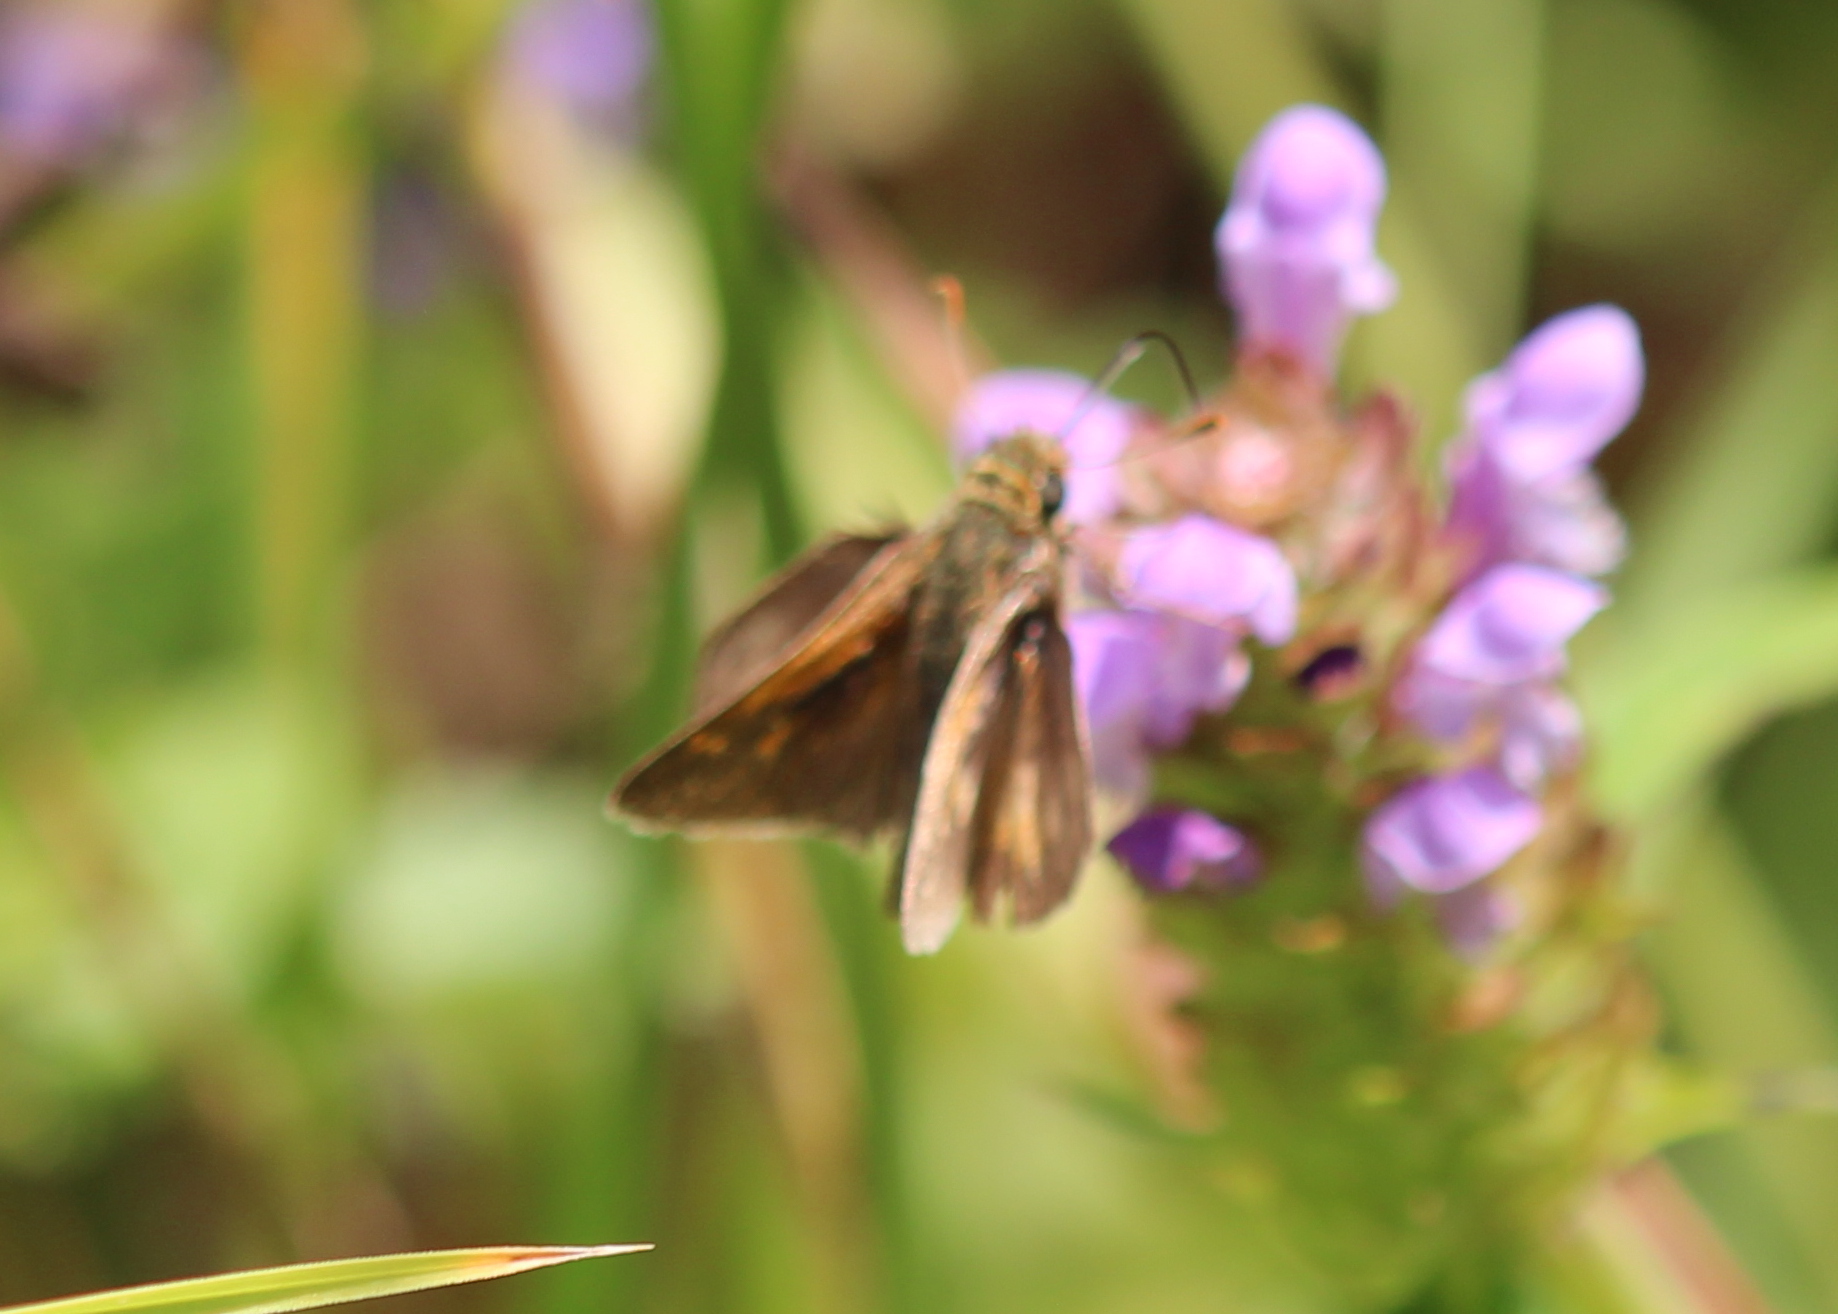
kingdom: Animalia
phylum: Arthropoda
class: Insecta
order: Lepidoptera
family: Hesperiidae
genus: Polites
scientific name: Polites coras
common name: Peck's skipper
